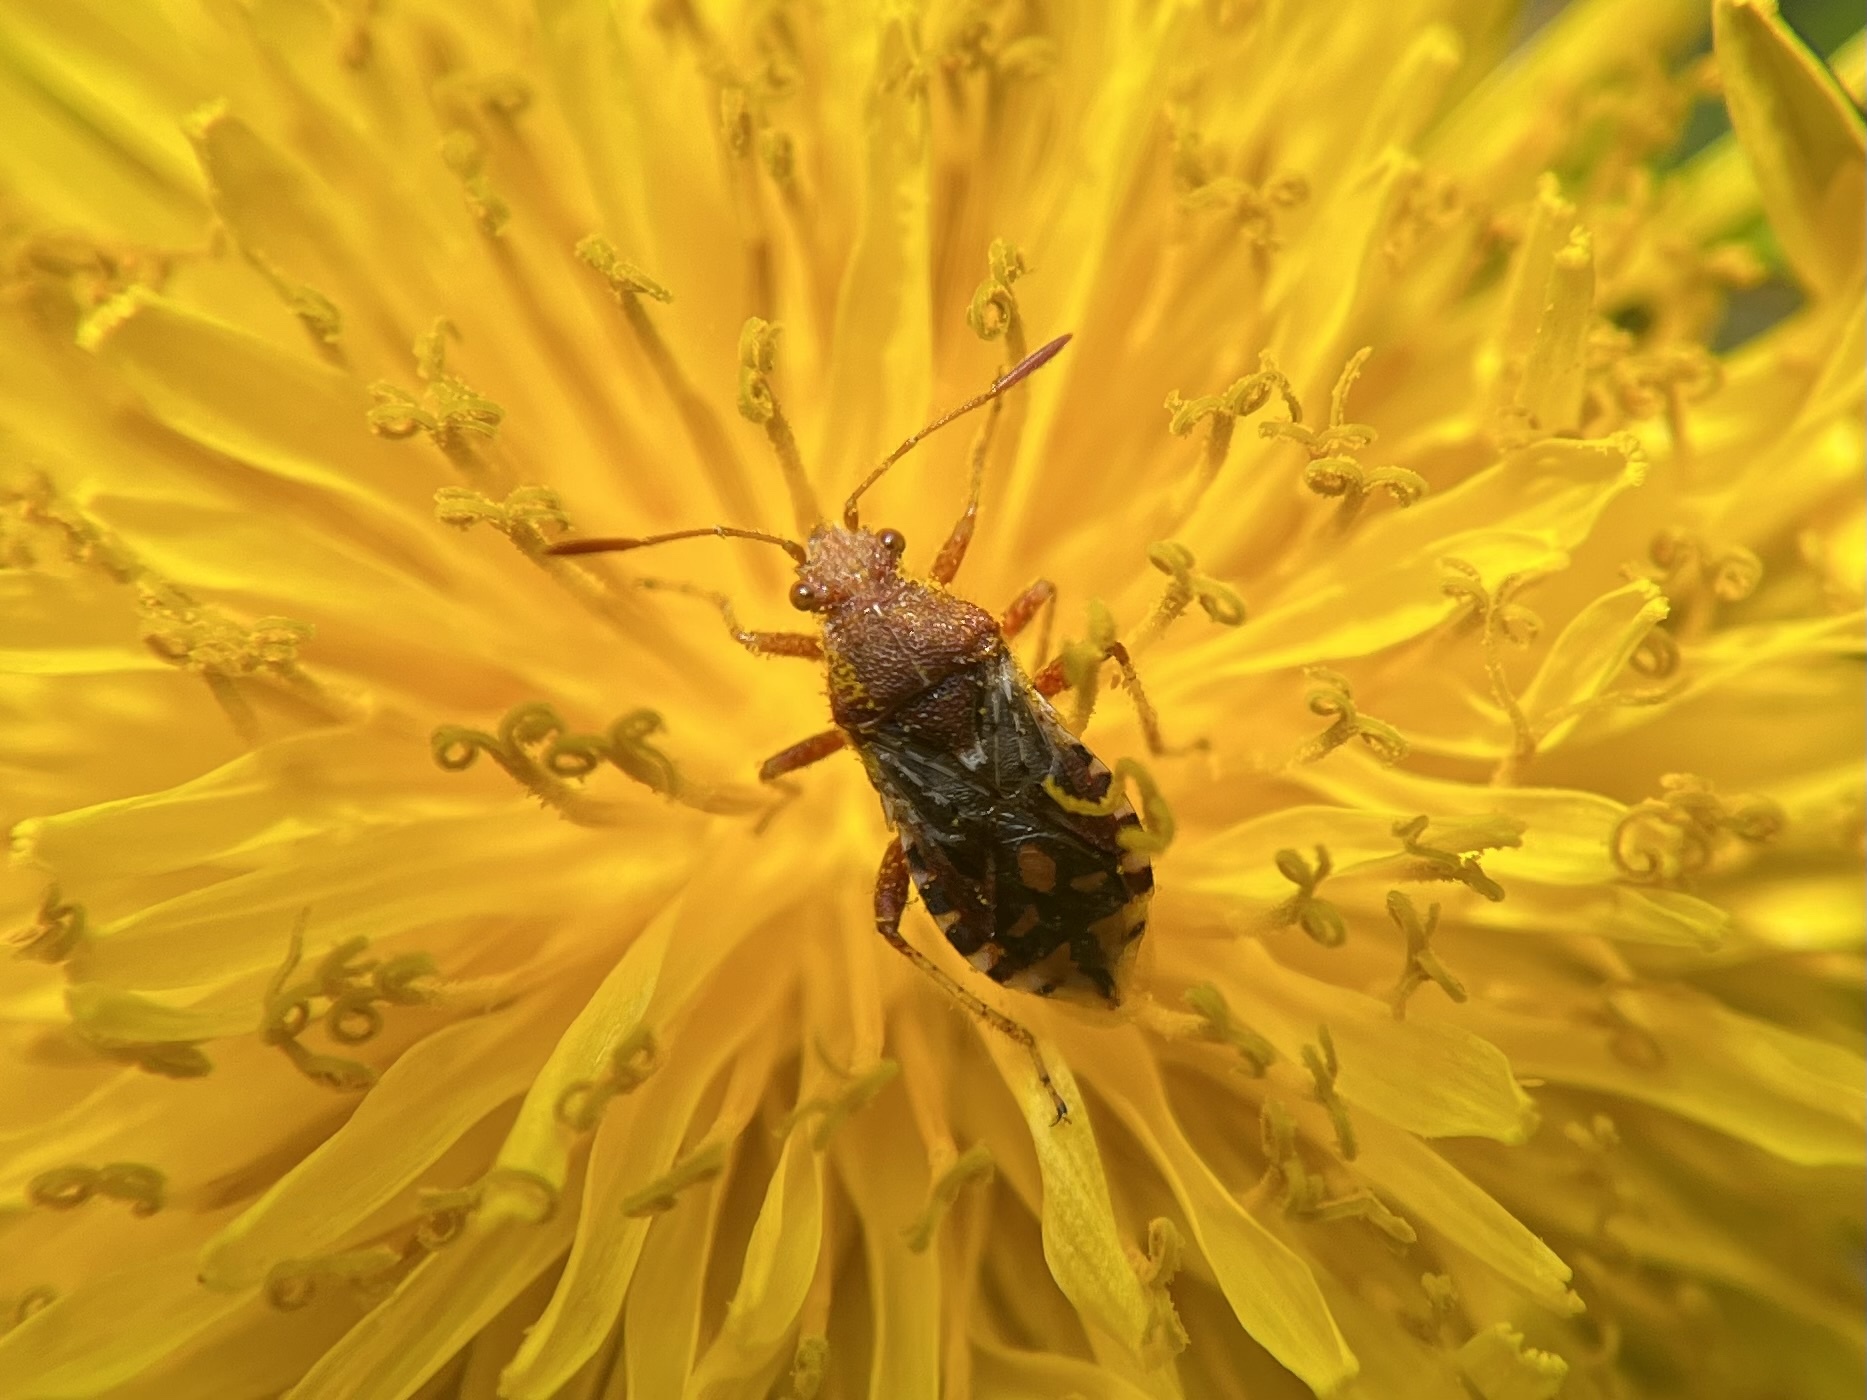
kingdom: Animalia
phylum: Arthropoda
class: Insecta
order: Hemiptera
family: Rhopalidae
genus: Rhopalus
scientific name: Rhopalus subrufus
